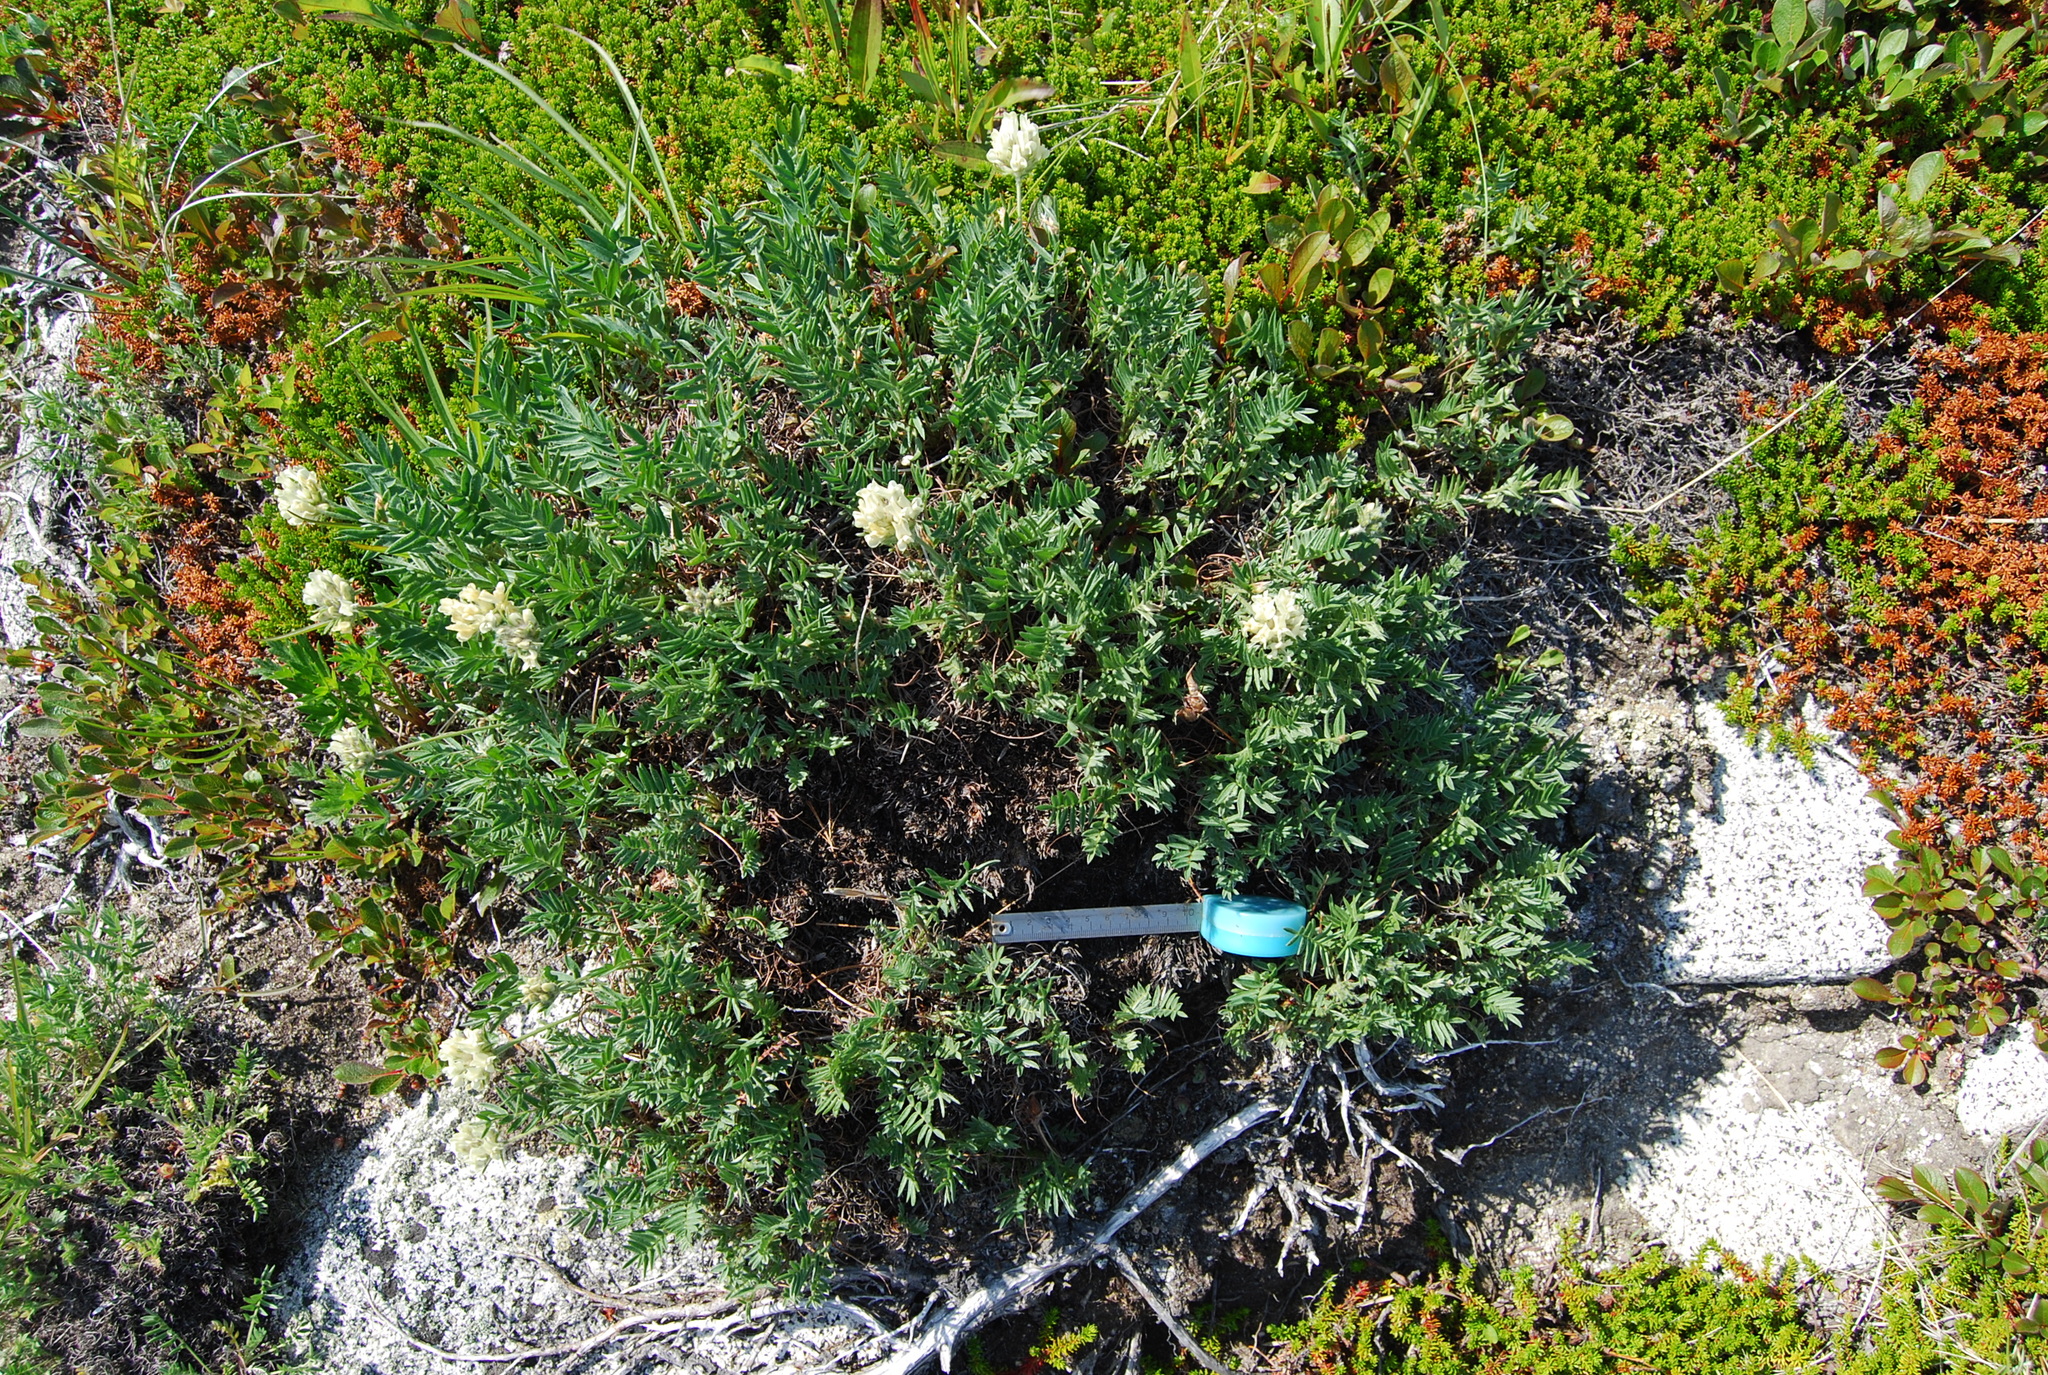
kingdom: Plantae
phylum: Tracheophyta
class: Magnoliopsida
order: Fabales
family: Fabaceae
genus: Oxytropis
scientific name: Oxytropis evenorum
